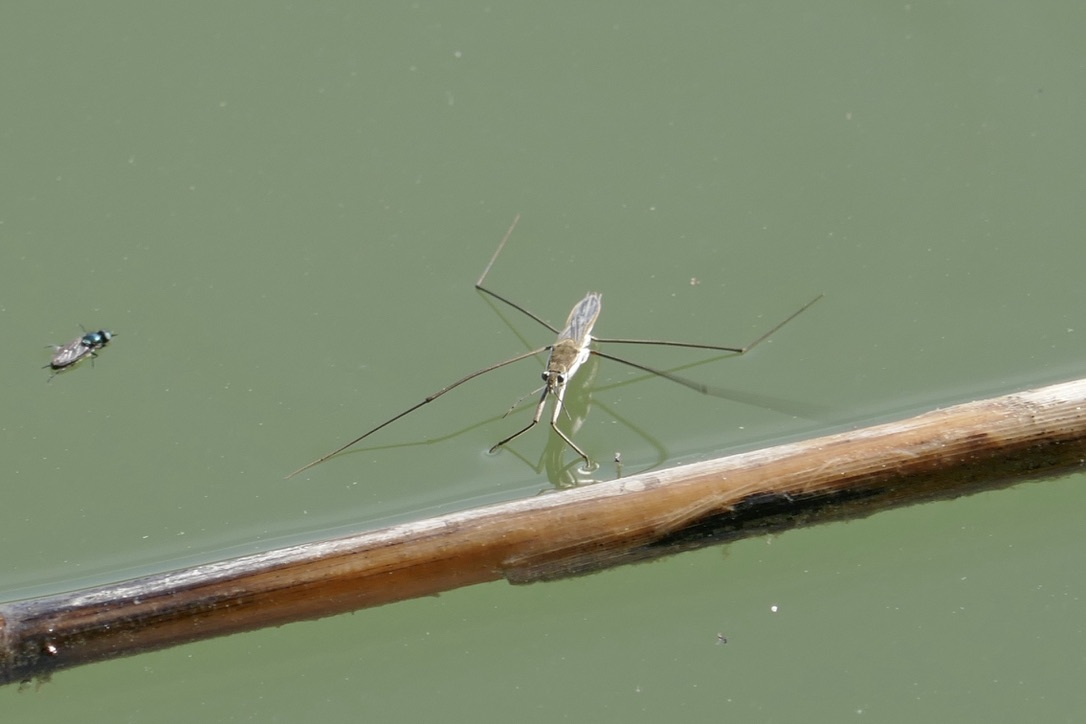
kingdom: Animalia
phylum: Arthropoda
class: Insecta
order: Hemiptera
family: Gerridae
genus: Aquarius
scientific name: Aquarius paludum
